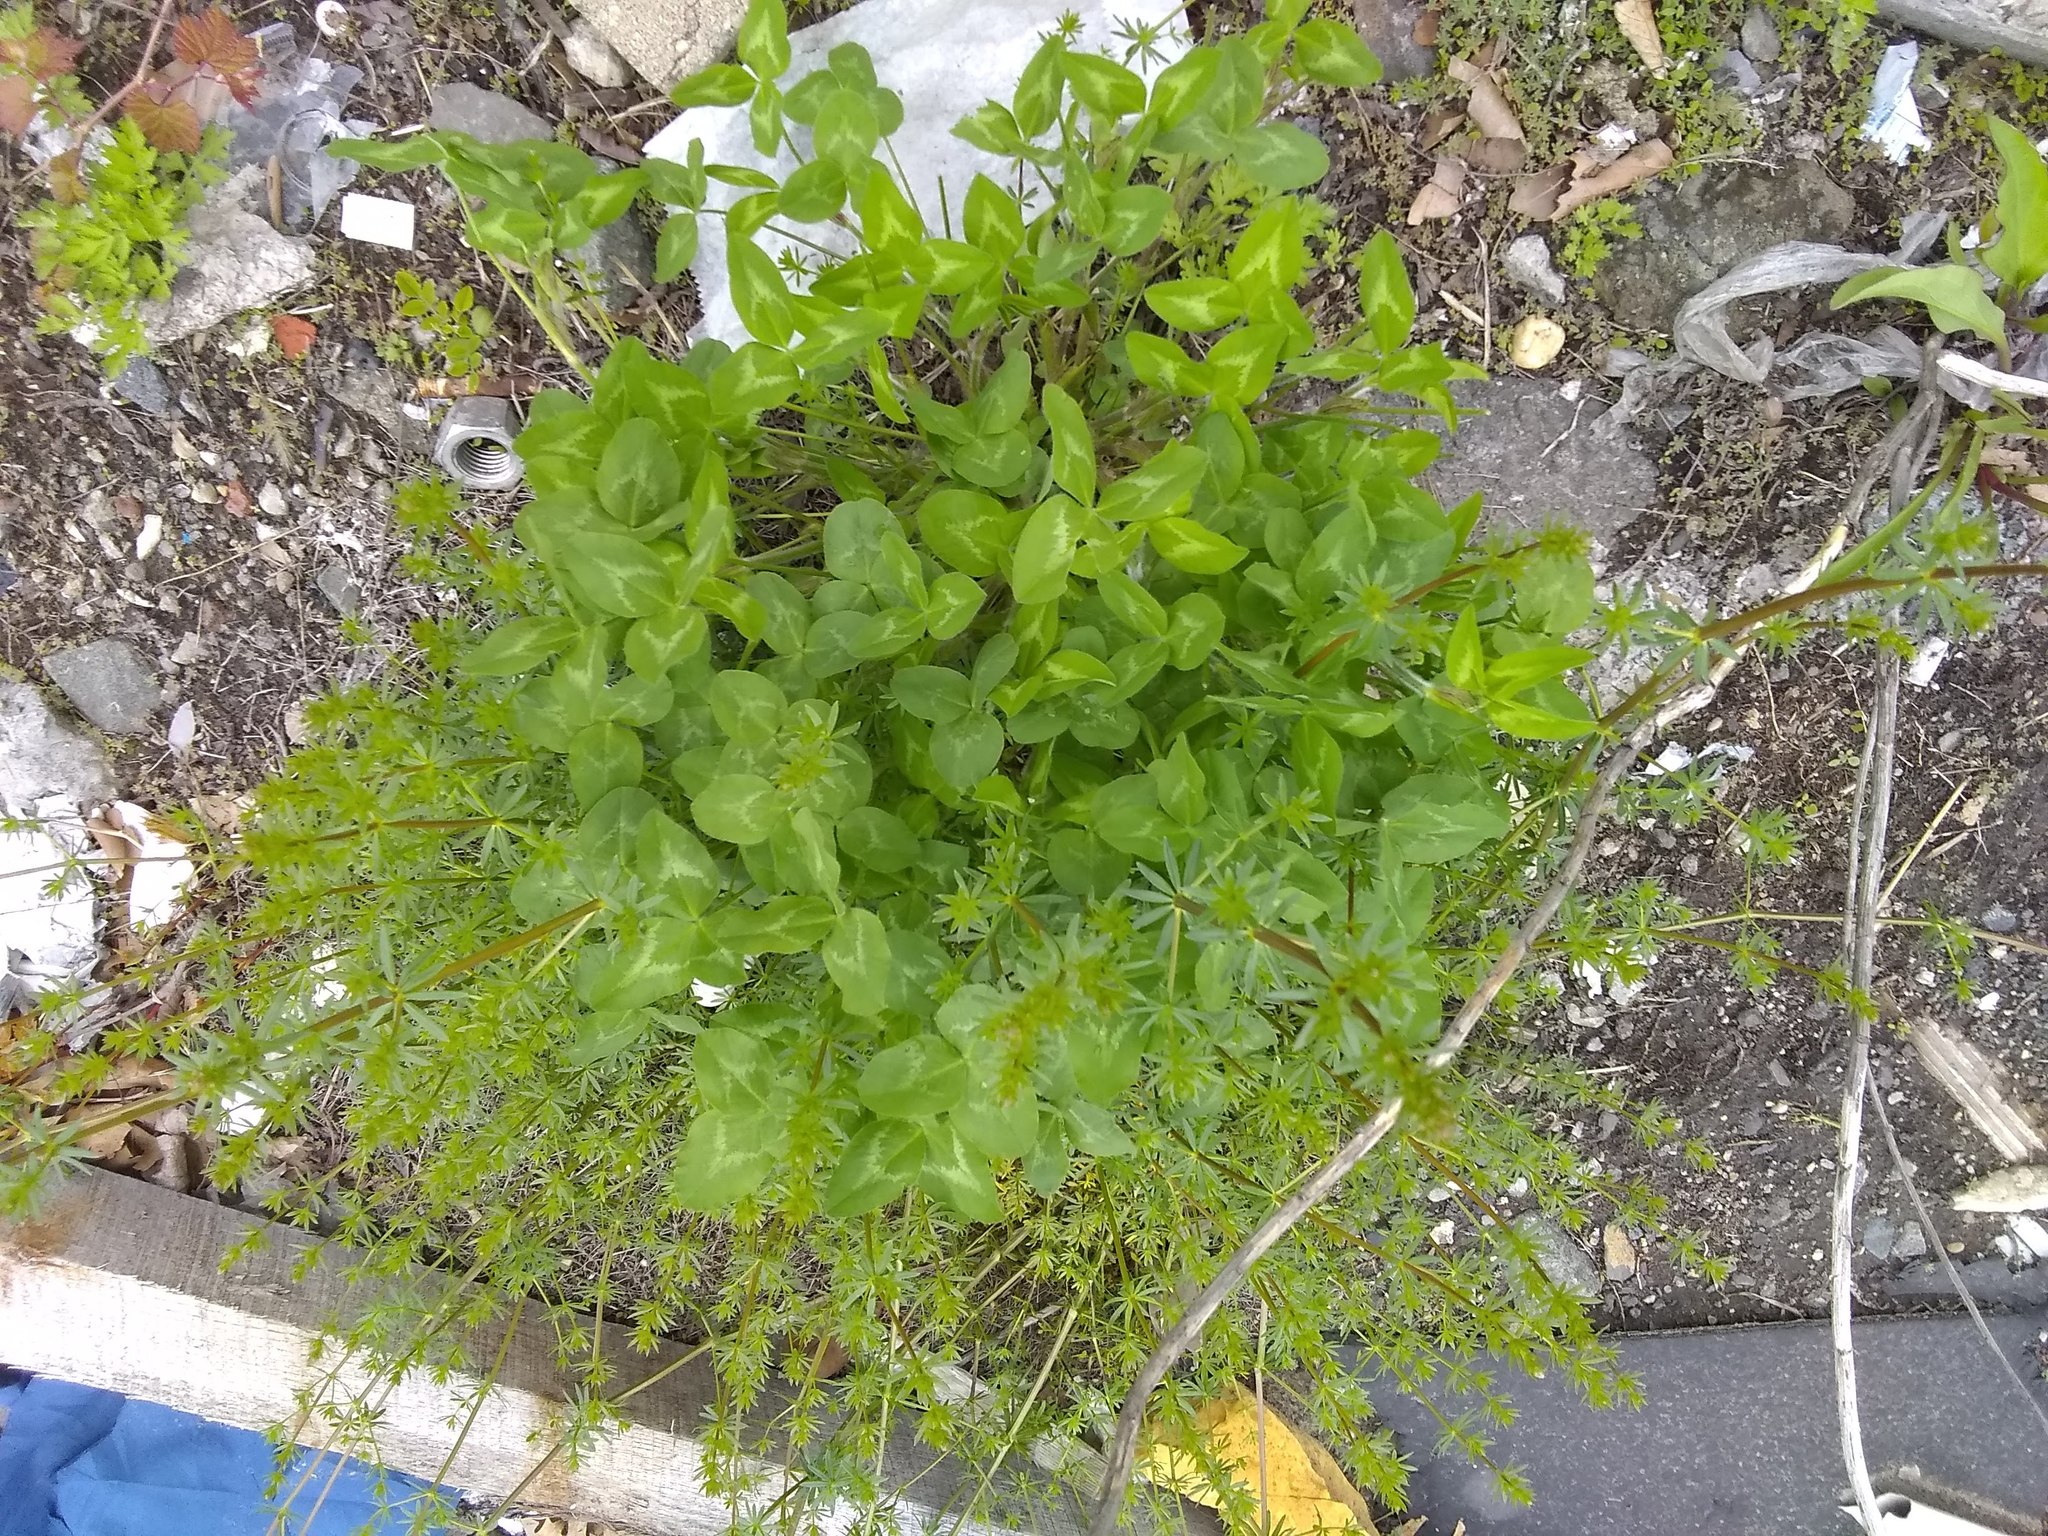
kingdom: Plantae
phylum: Tracheophyta
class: Magnoliopsida
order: Fabales
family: Fabaceae
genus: Trifolium
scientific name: Trifolium pratense
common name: Red clover
